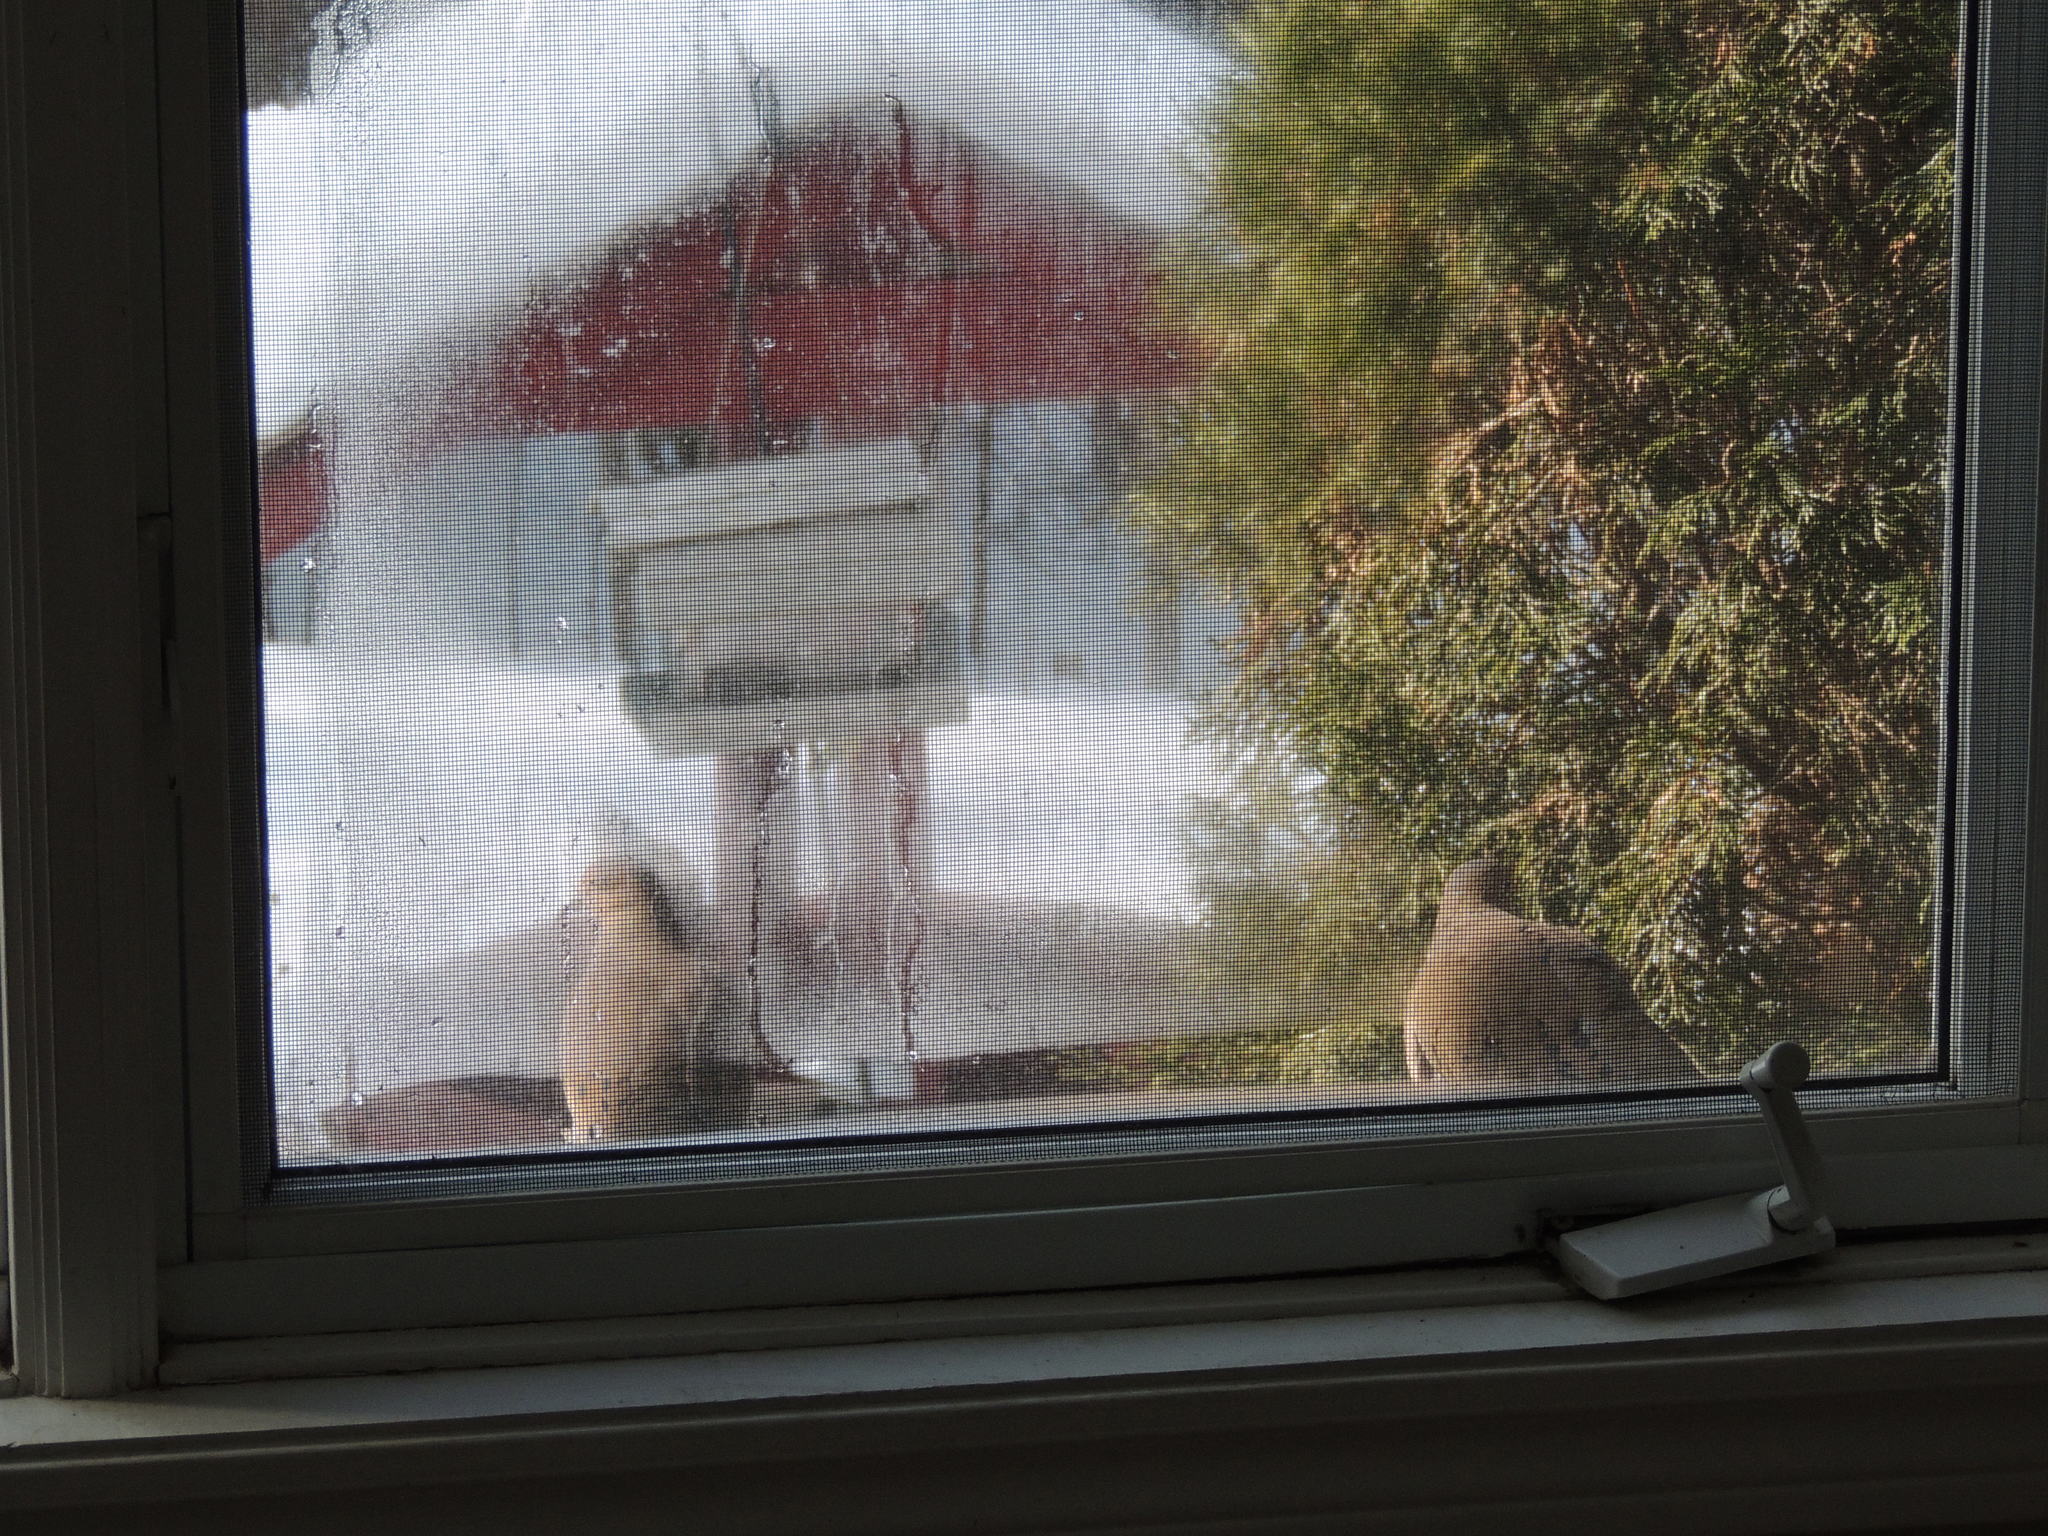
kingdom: Animalia
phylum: Chordata
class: Aves
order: Columbiformes
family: Columbidae
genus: Zenaida
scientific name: Zenaida macroura
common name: Mourning dove
